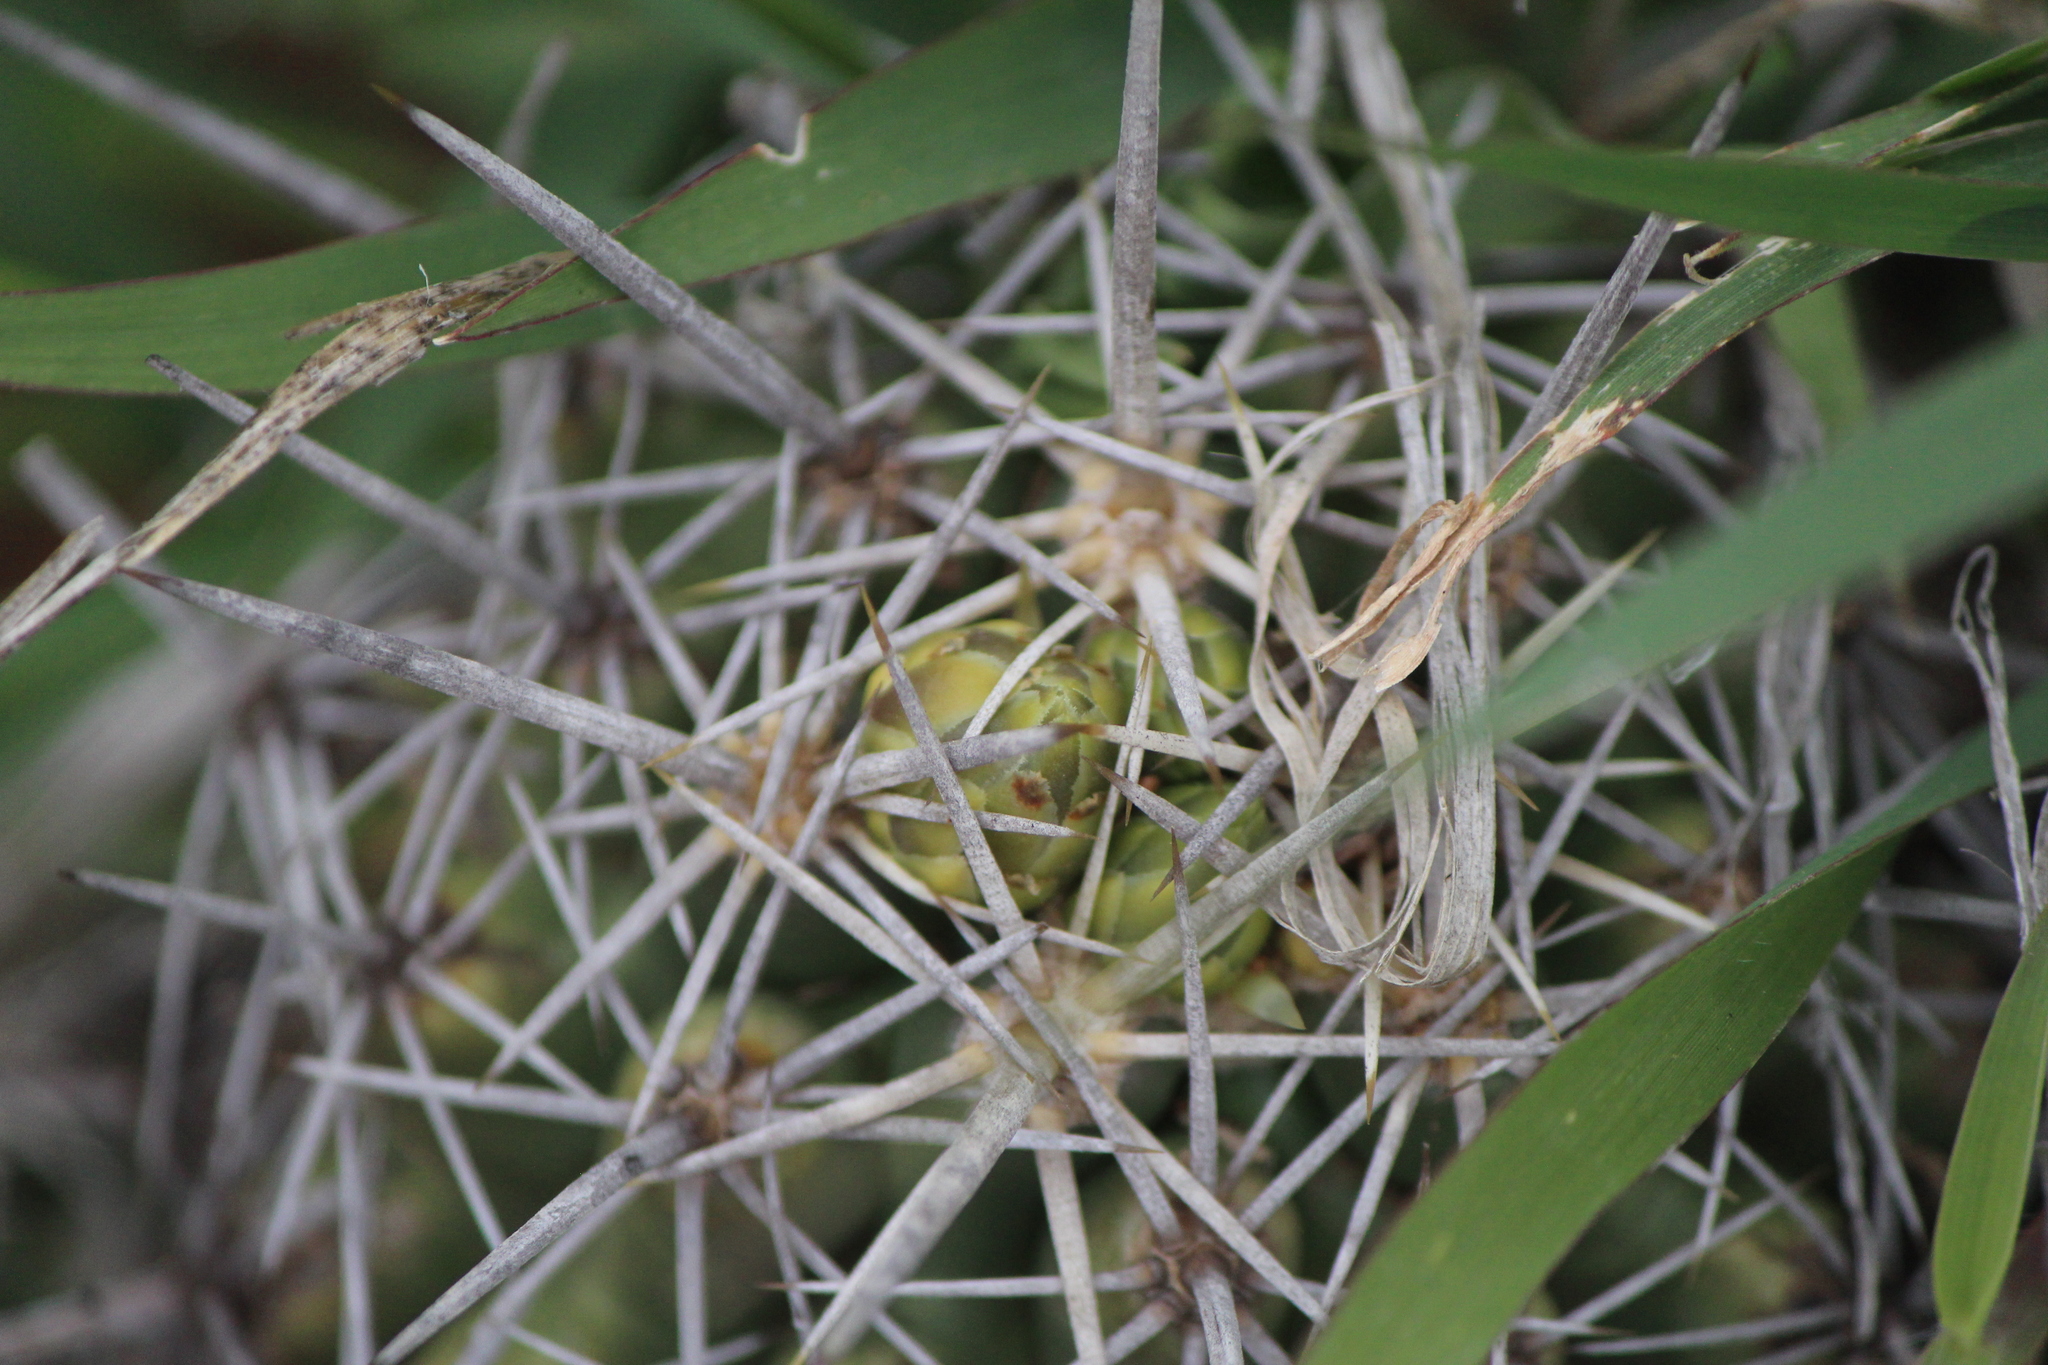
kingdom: Plantae
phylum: Tracheophyta
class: Magnoliopsida
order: Caryophyllales
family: Cactaceae
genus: Thelocactus
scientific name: Thelocactus leucacanthus
